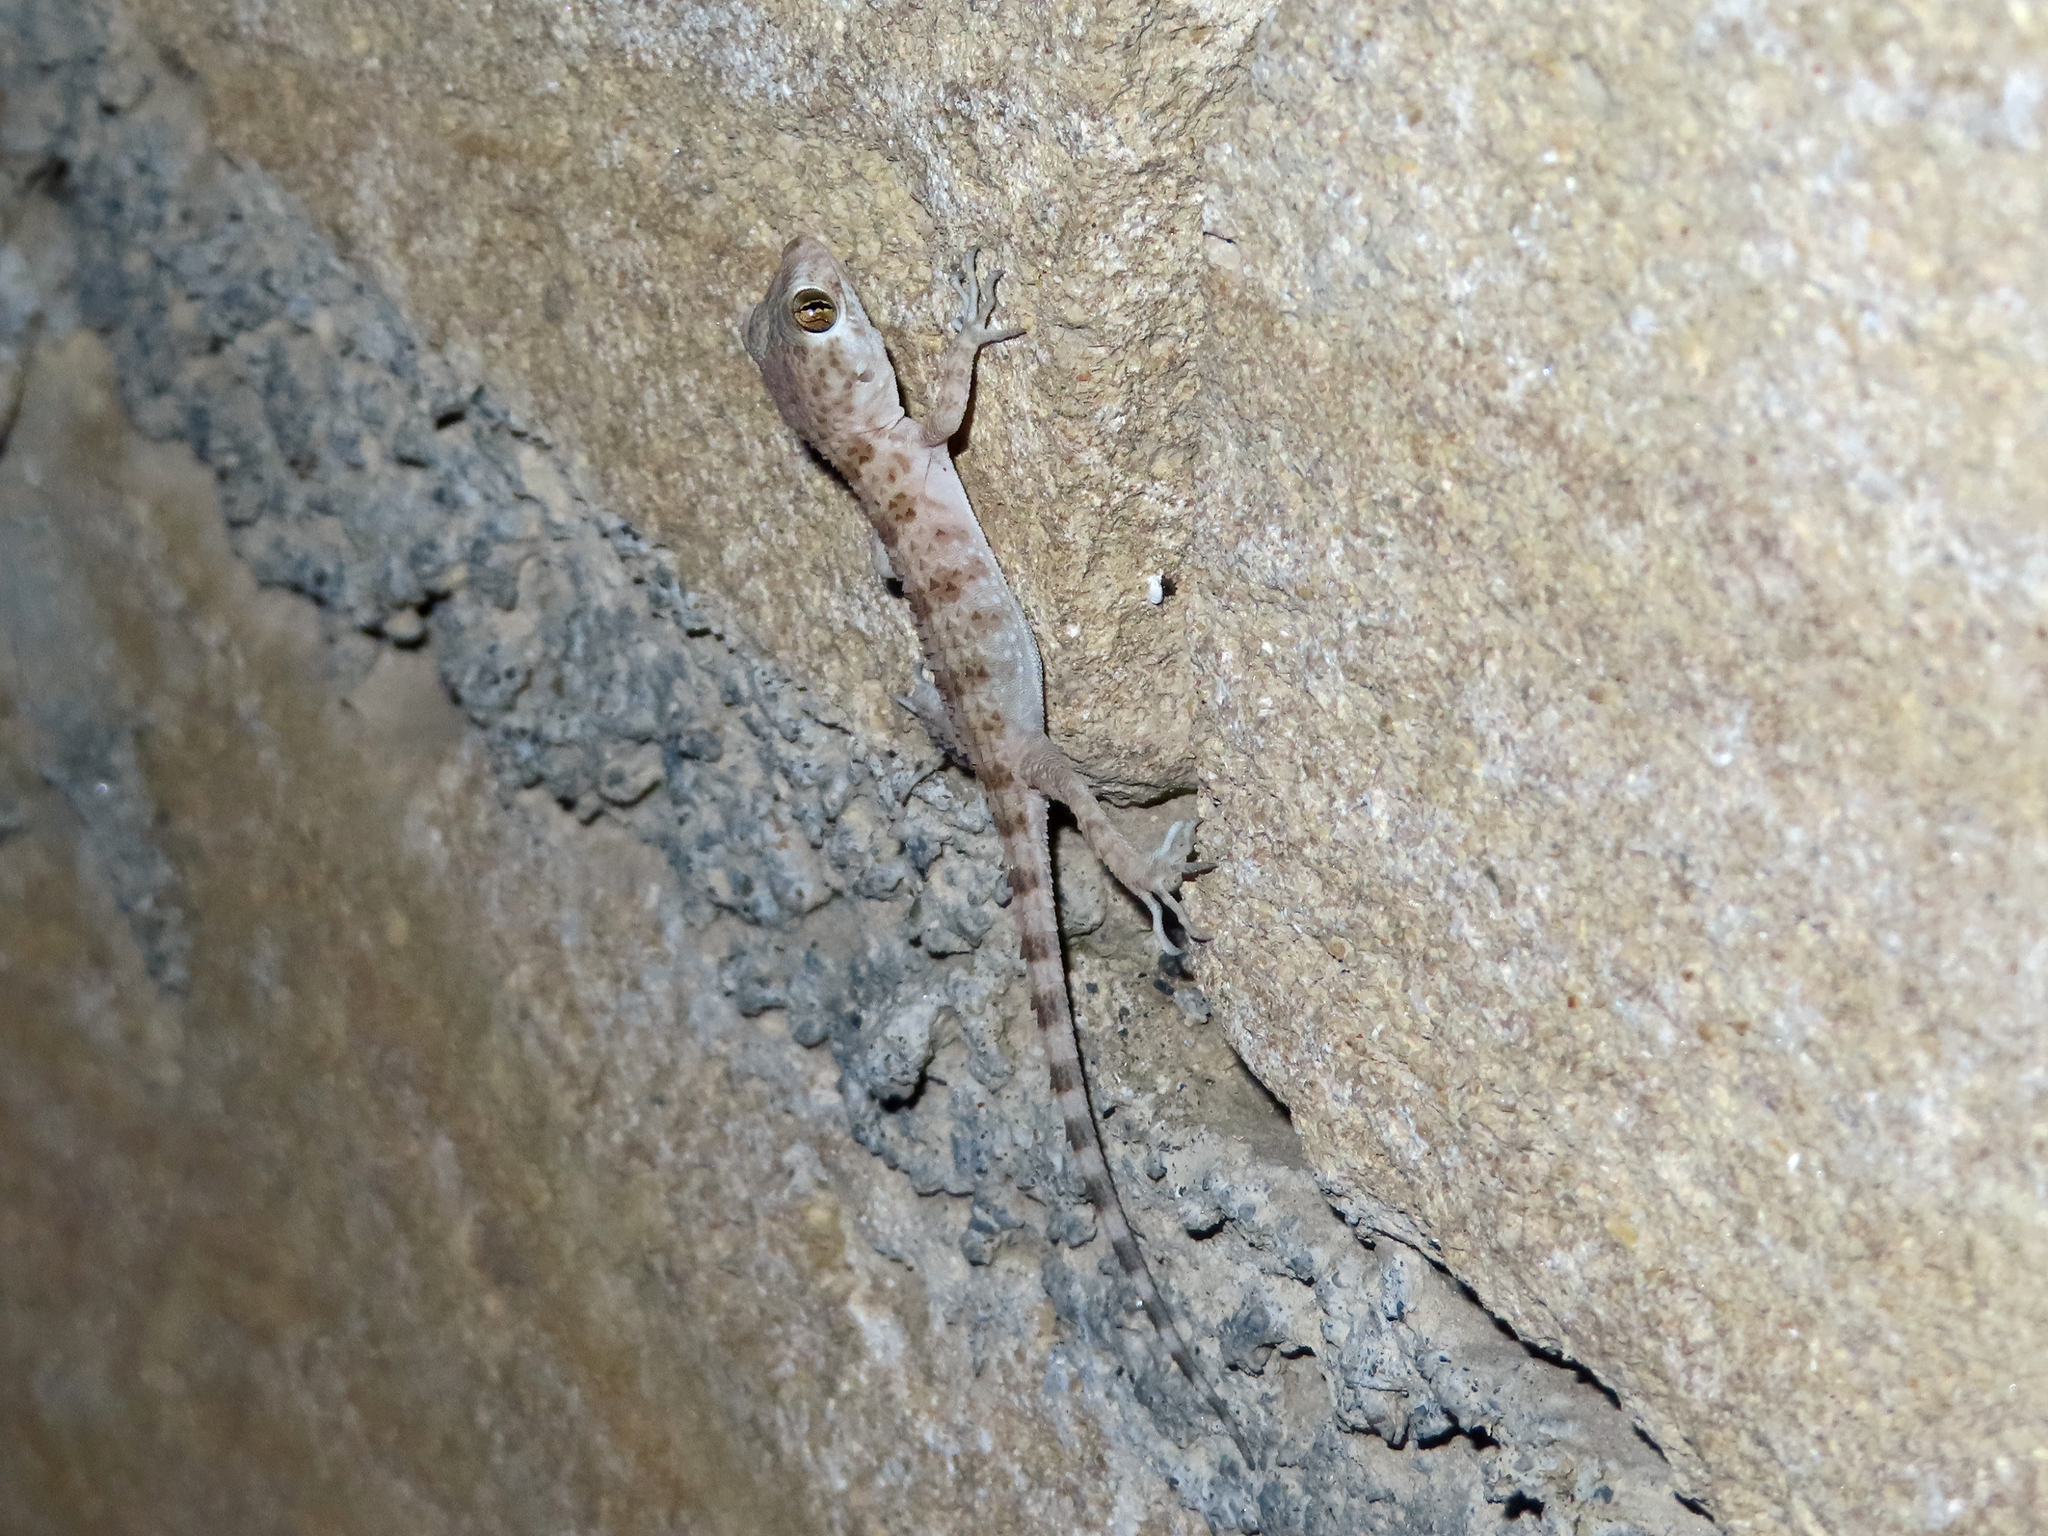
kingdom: Animalia
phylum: Chordata
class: Squamata
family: Gekkonidae
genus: Tenuidactylus
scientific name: Tenuidactylus caspius
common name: Caspian bent-toed gecko
